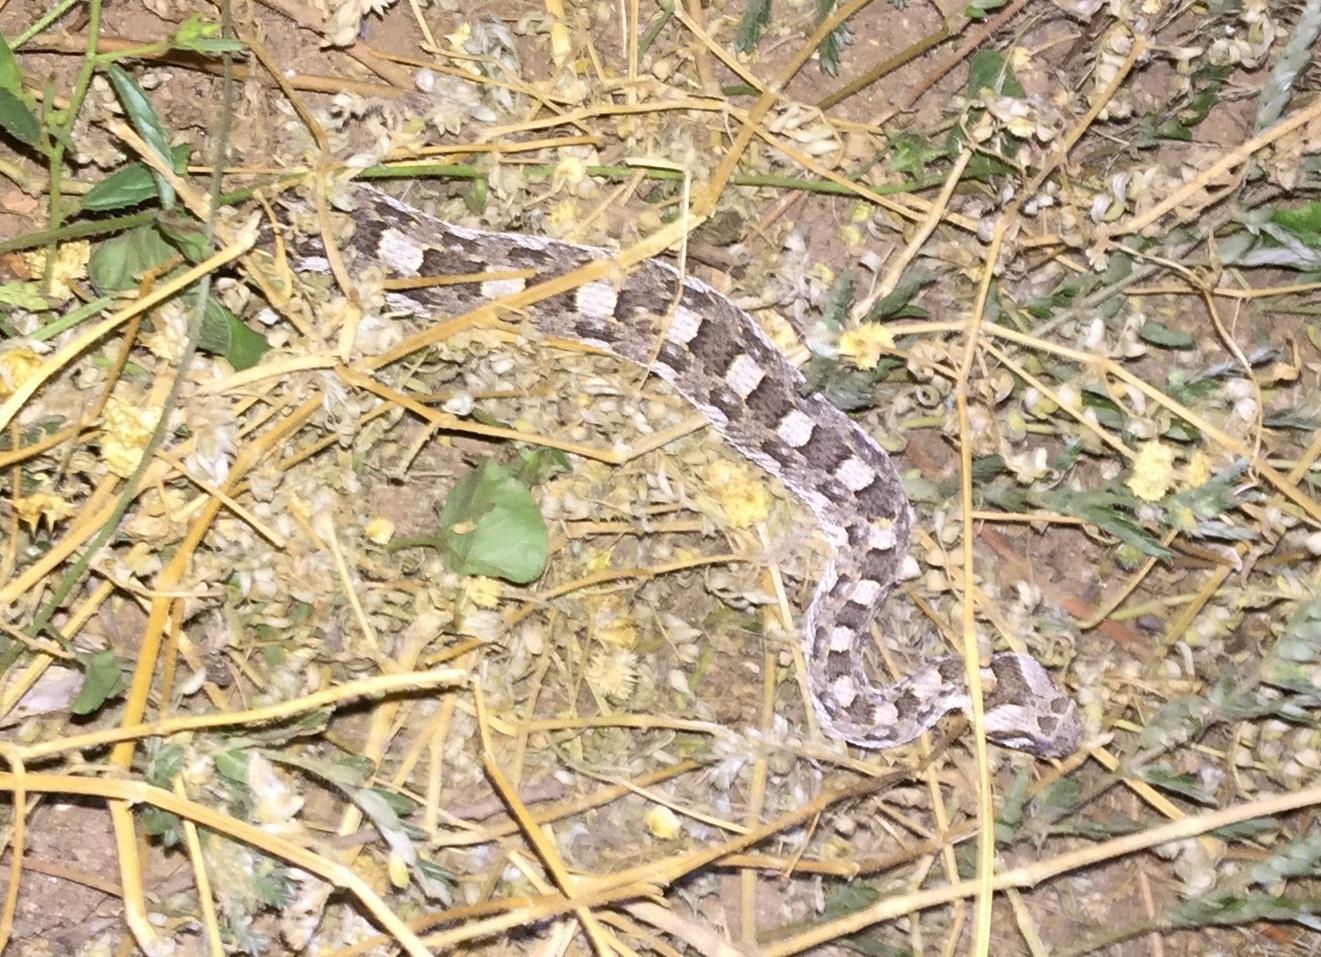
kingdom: Animalia
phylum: Chordata
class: Squamata
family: Viperidae
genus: Bitis
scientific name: Bitis caudalis
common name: Horned adder
